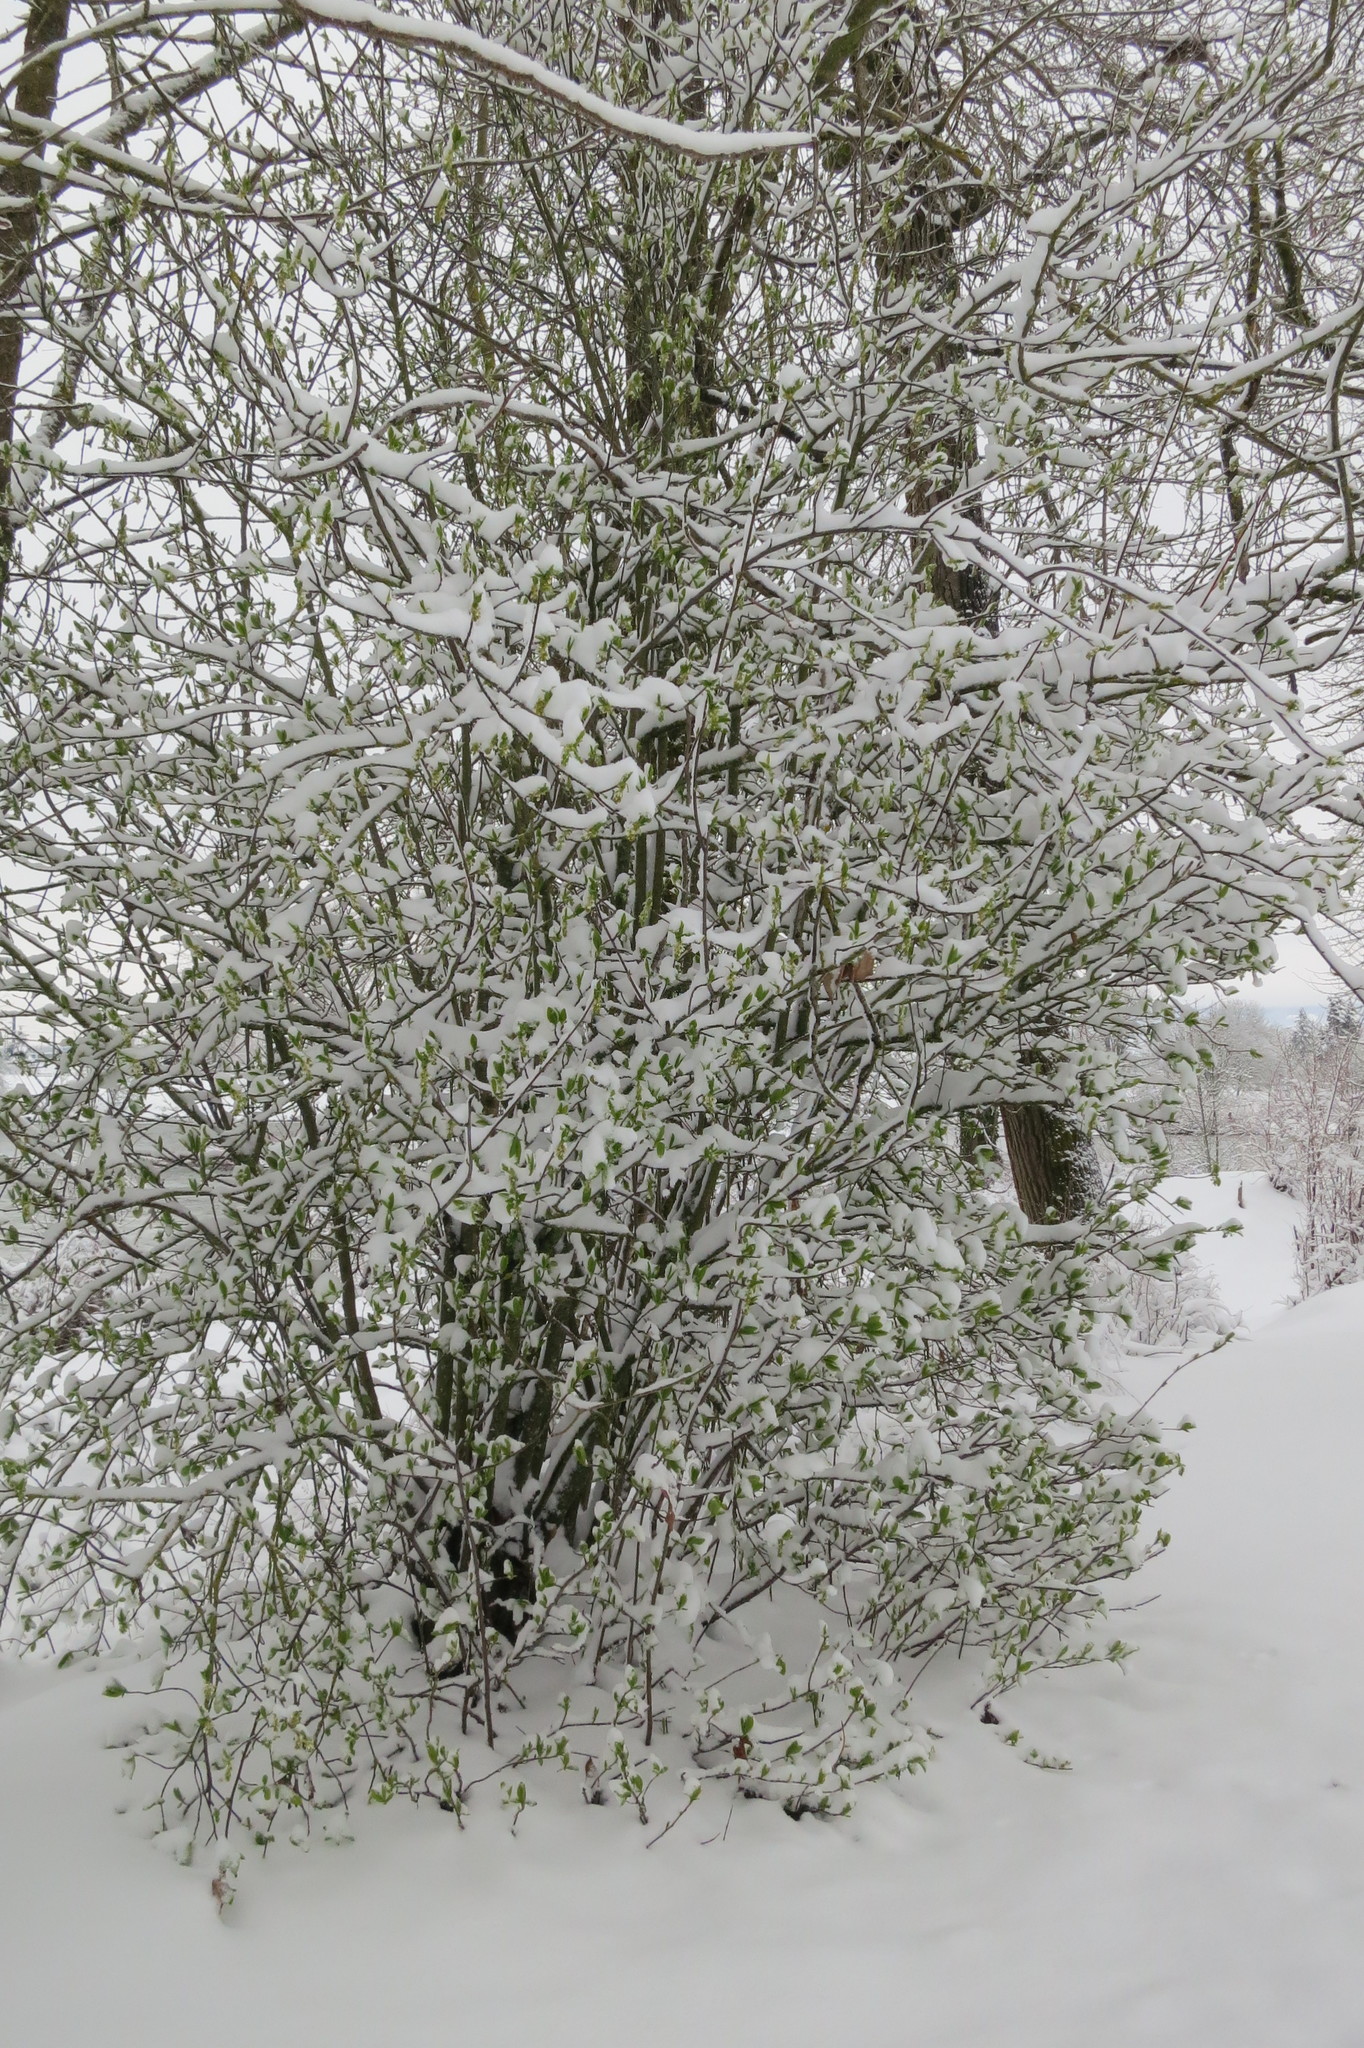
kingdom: Plantae
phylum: Tracheophyta
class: Magnoliopsida
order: Rosales
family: Rosaceae
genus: Oemleria
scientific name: Oemleria cerasiformis
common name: Osoberry
